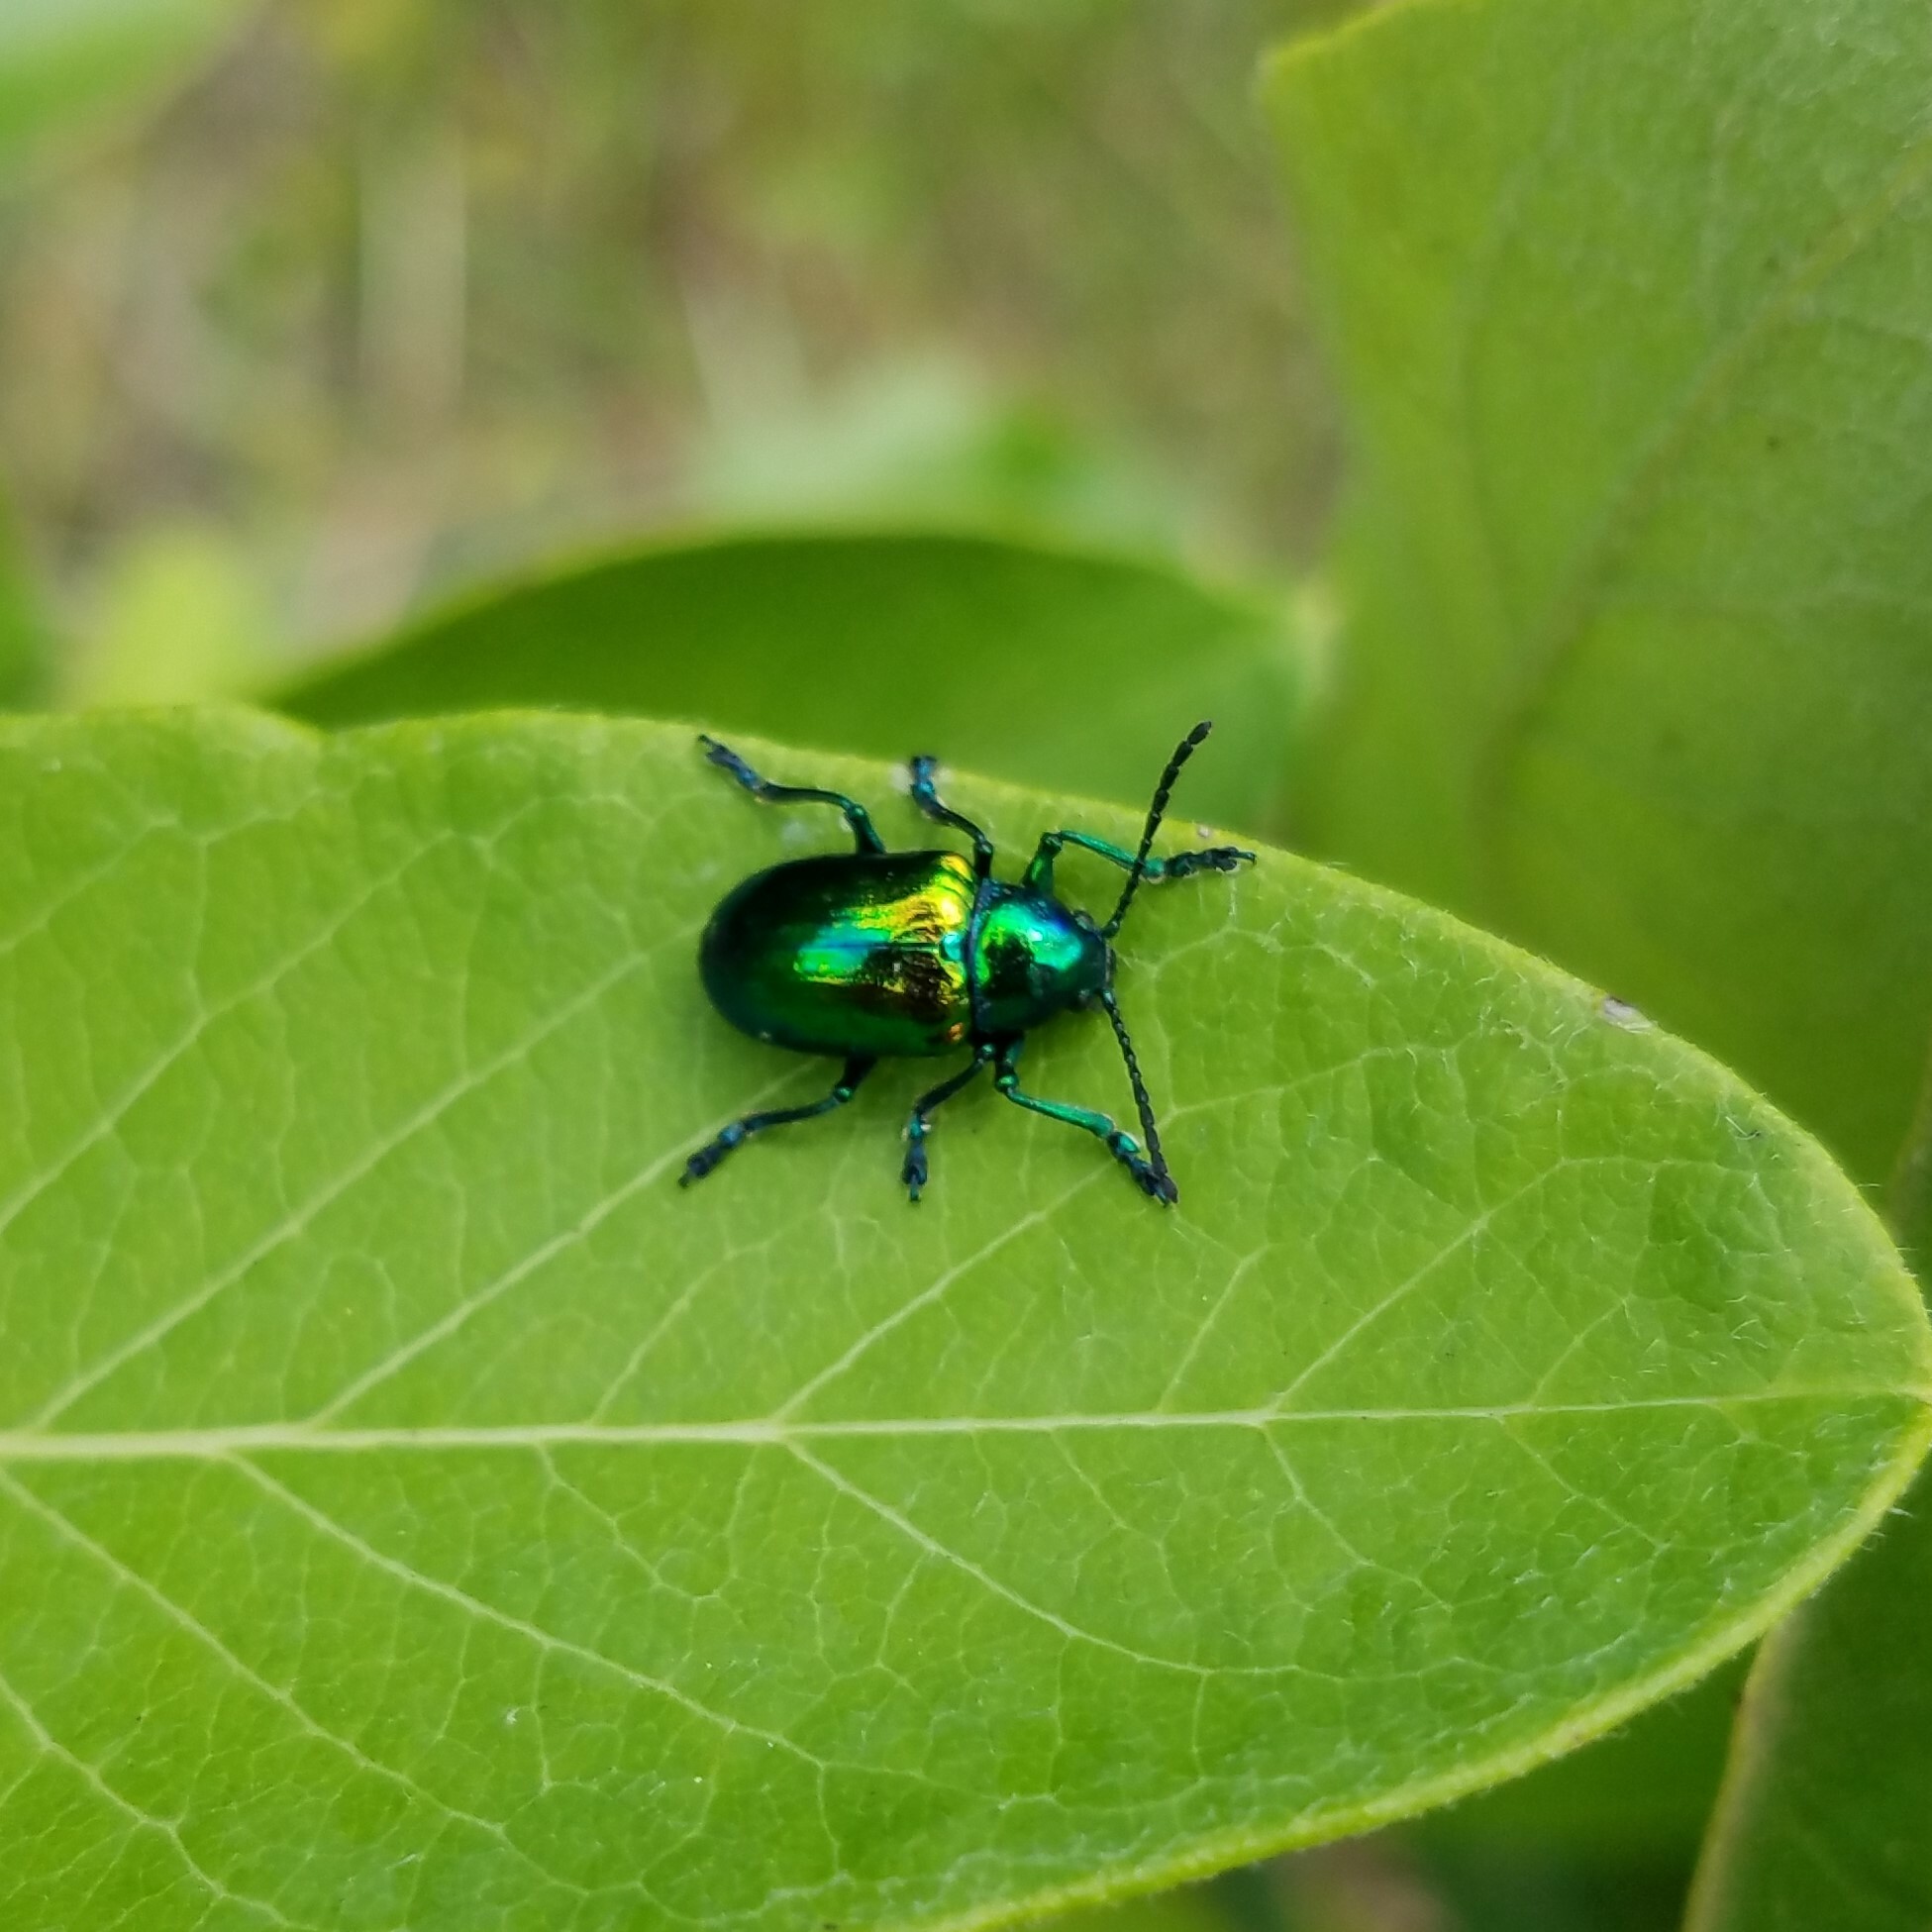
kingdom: Animalia
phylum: Arthropoda
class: Insecta
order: Coleoptera
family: Chrysomelidae
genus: Chrysochus
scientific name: Chrysochus auratus
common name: Dogbane leaf beetle
